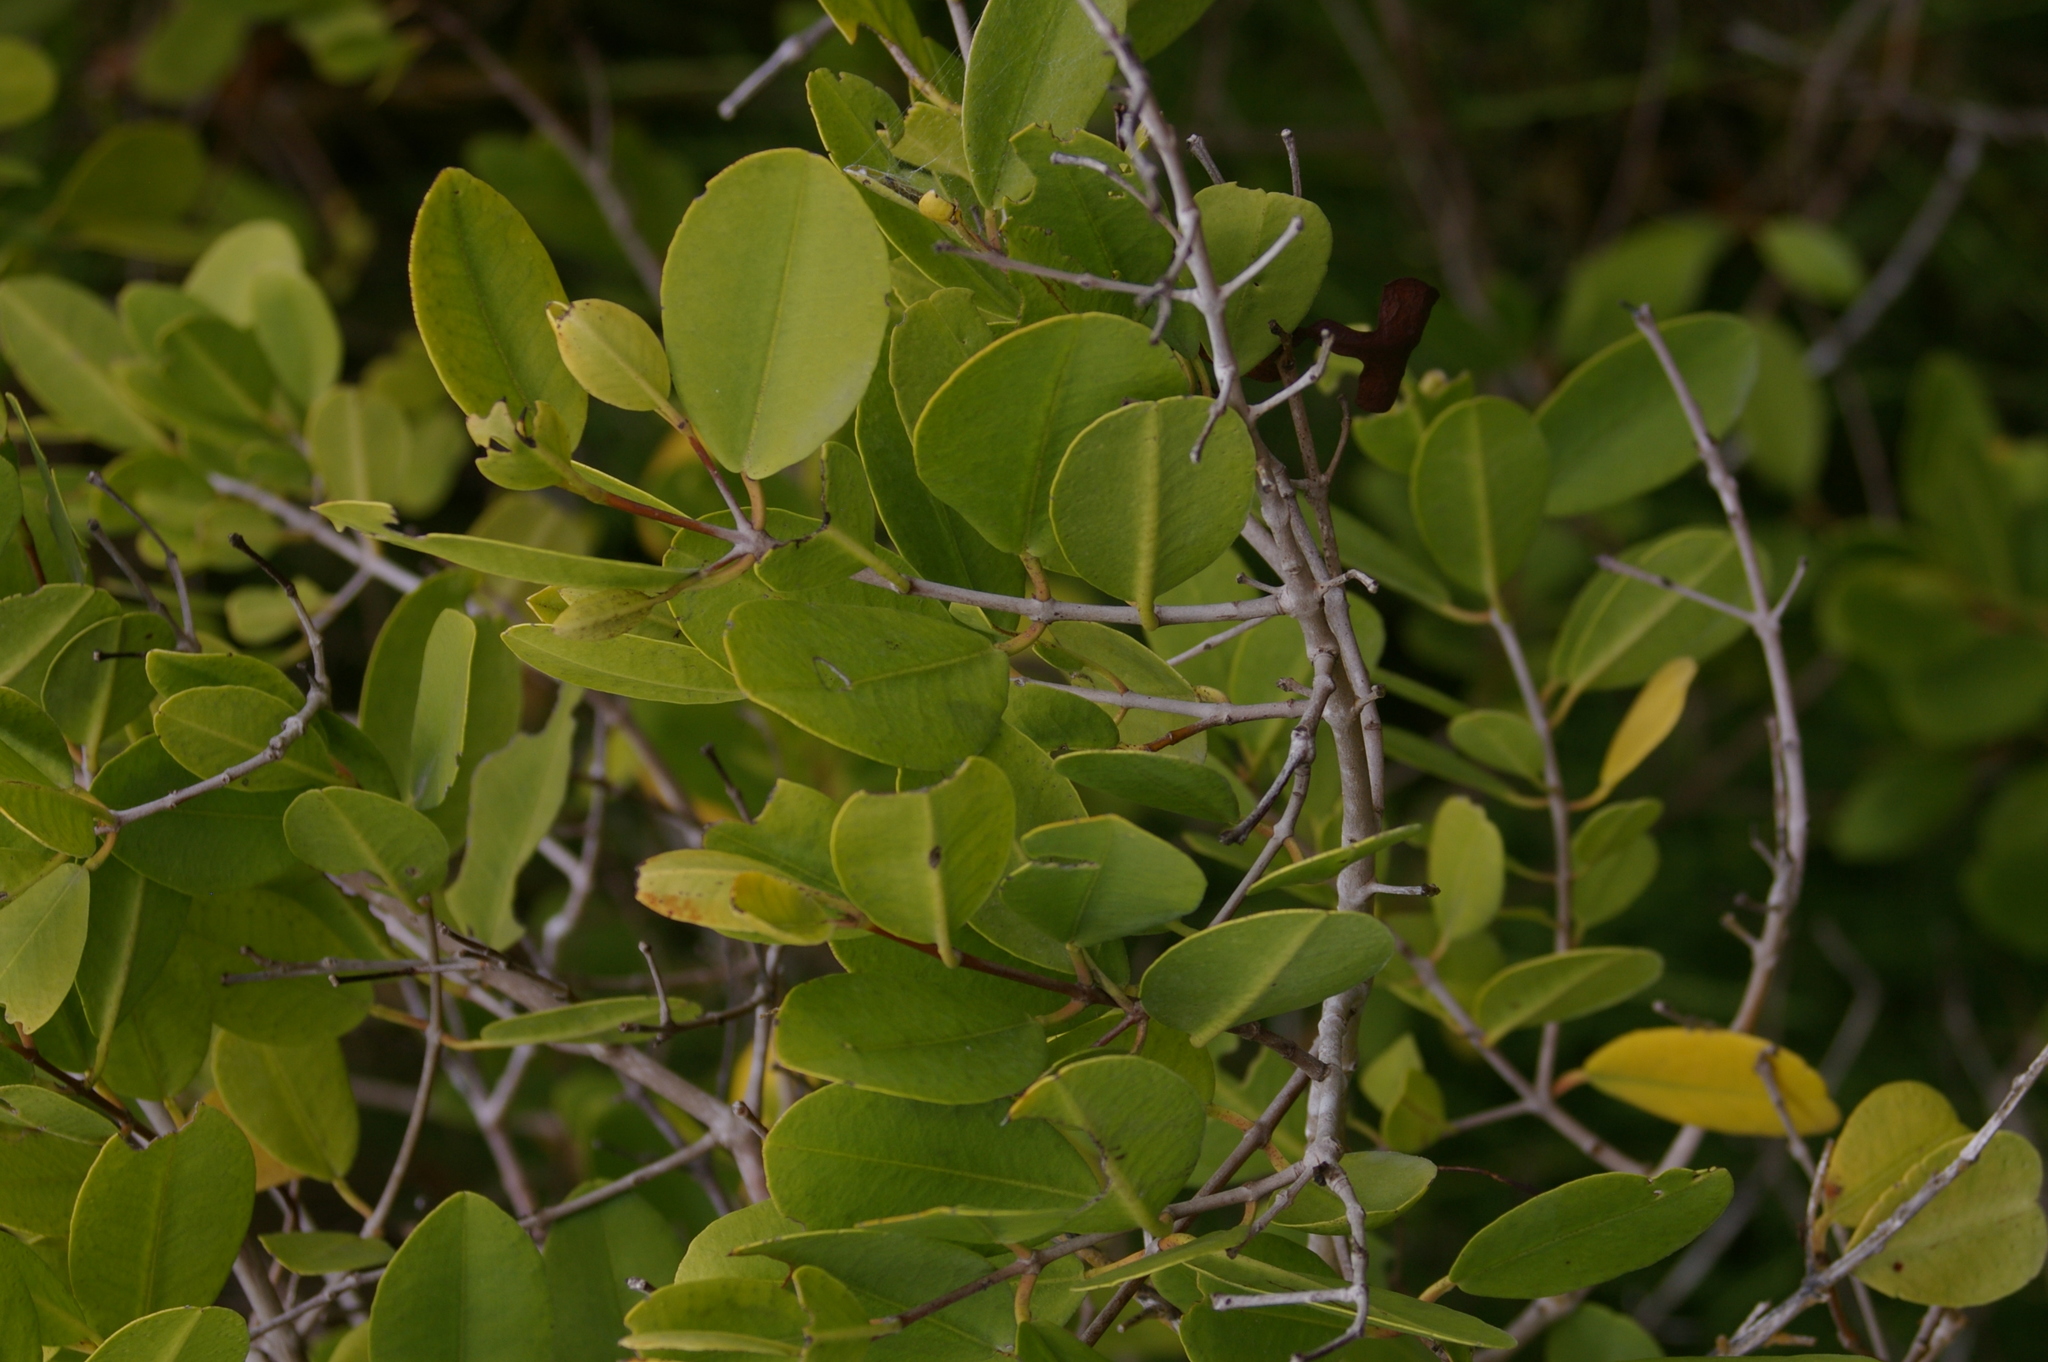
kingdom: Plantae
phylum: Tracheophyta
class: Magnoliopsida
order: Myrtales
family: Combretaceae
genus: Laguncularia
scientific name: Laguncularia racemosa
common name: White mangrove
